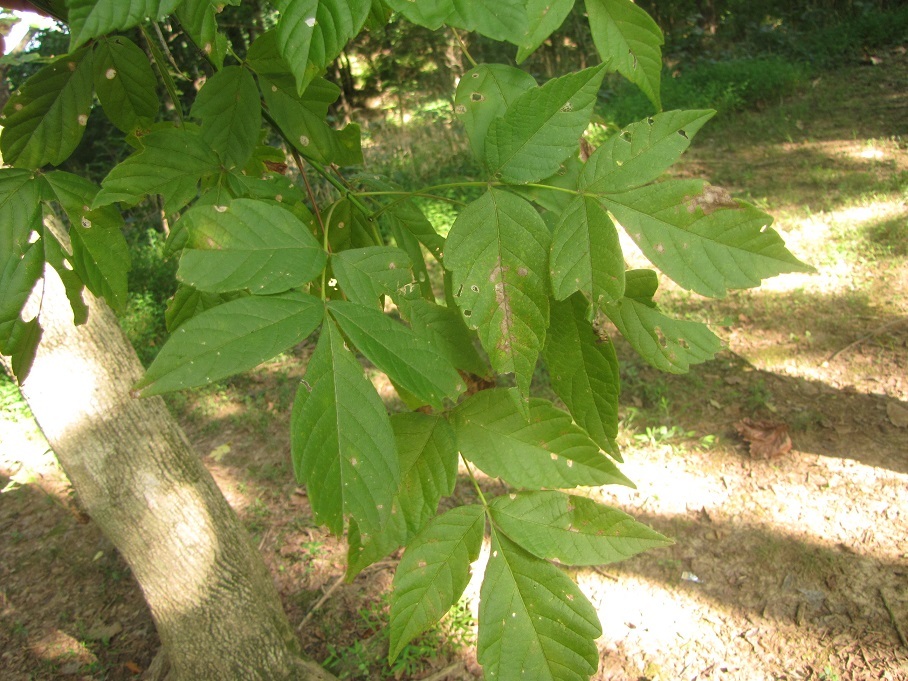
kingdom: Plantae
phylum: Tracheophyta
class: Magnoliopsida
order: Sapindales
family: Sapindaceae
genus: Acer
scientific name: Acer negundo
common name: Ashleaf maple
